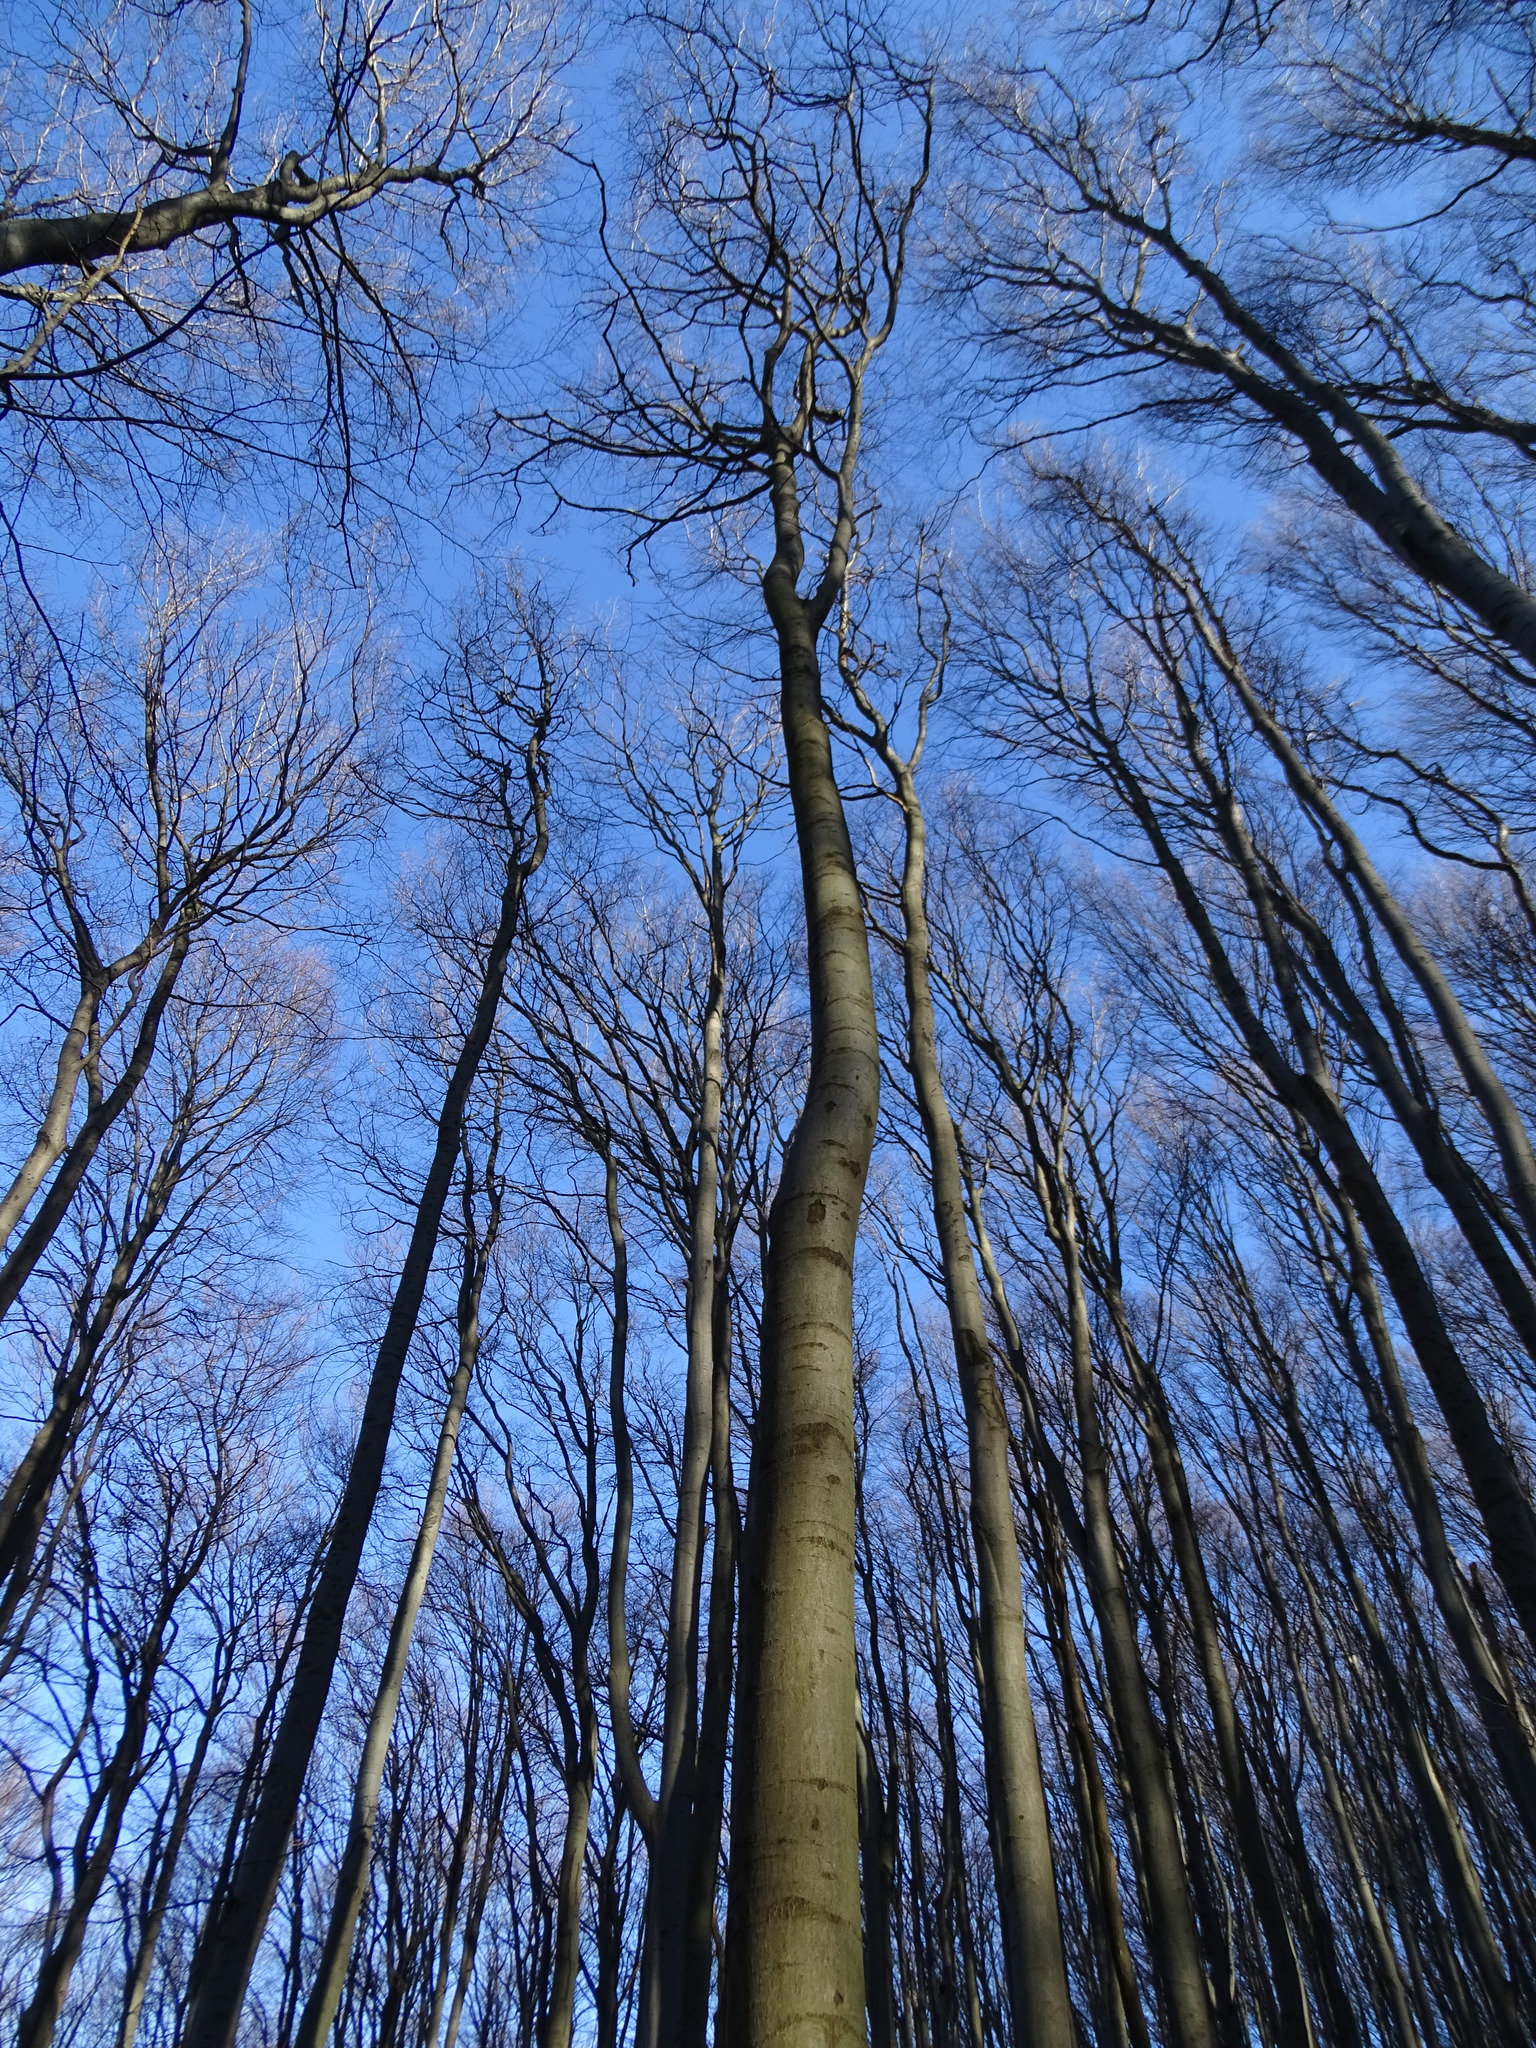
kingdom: Plantae
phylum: Tracheophyta
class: Magnoliopsida
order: Fagales
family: Fagaceae
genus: Fagus
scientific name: Fagus sylvatica
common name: Beech
